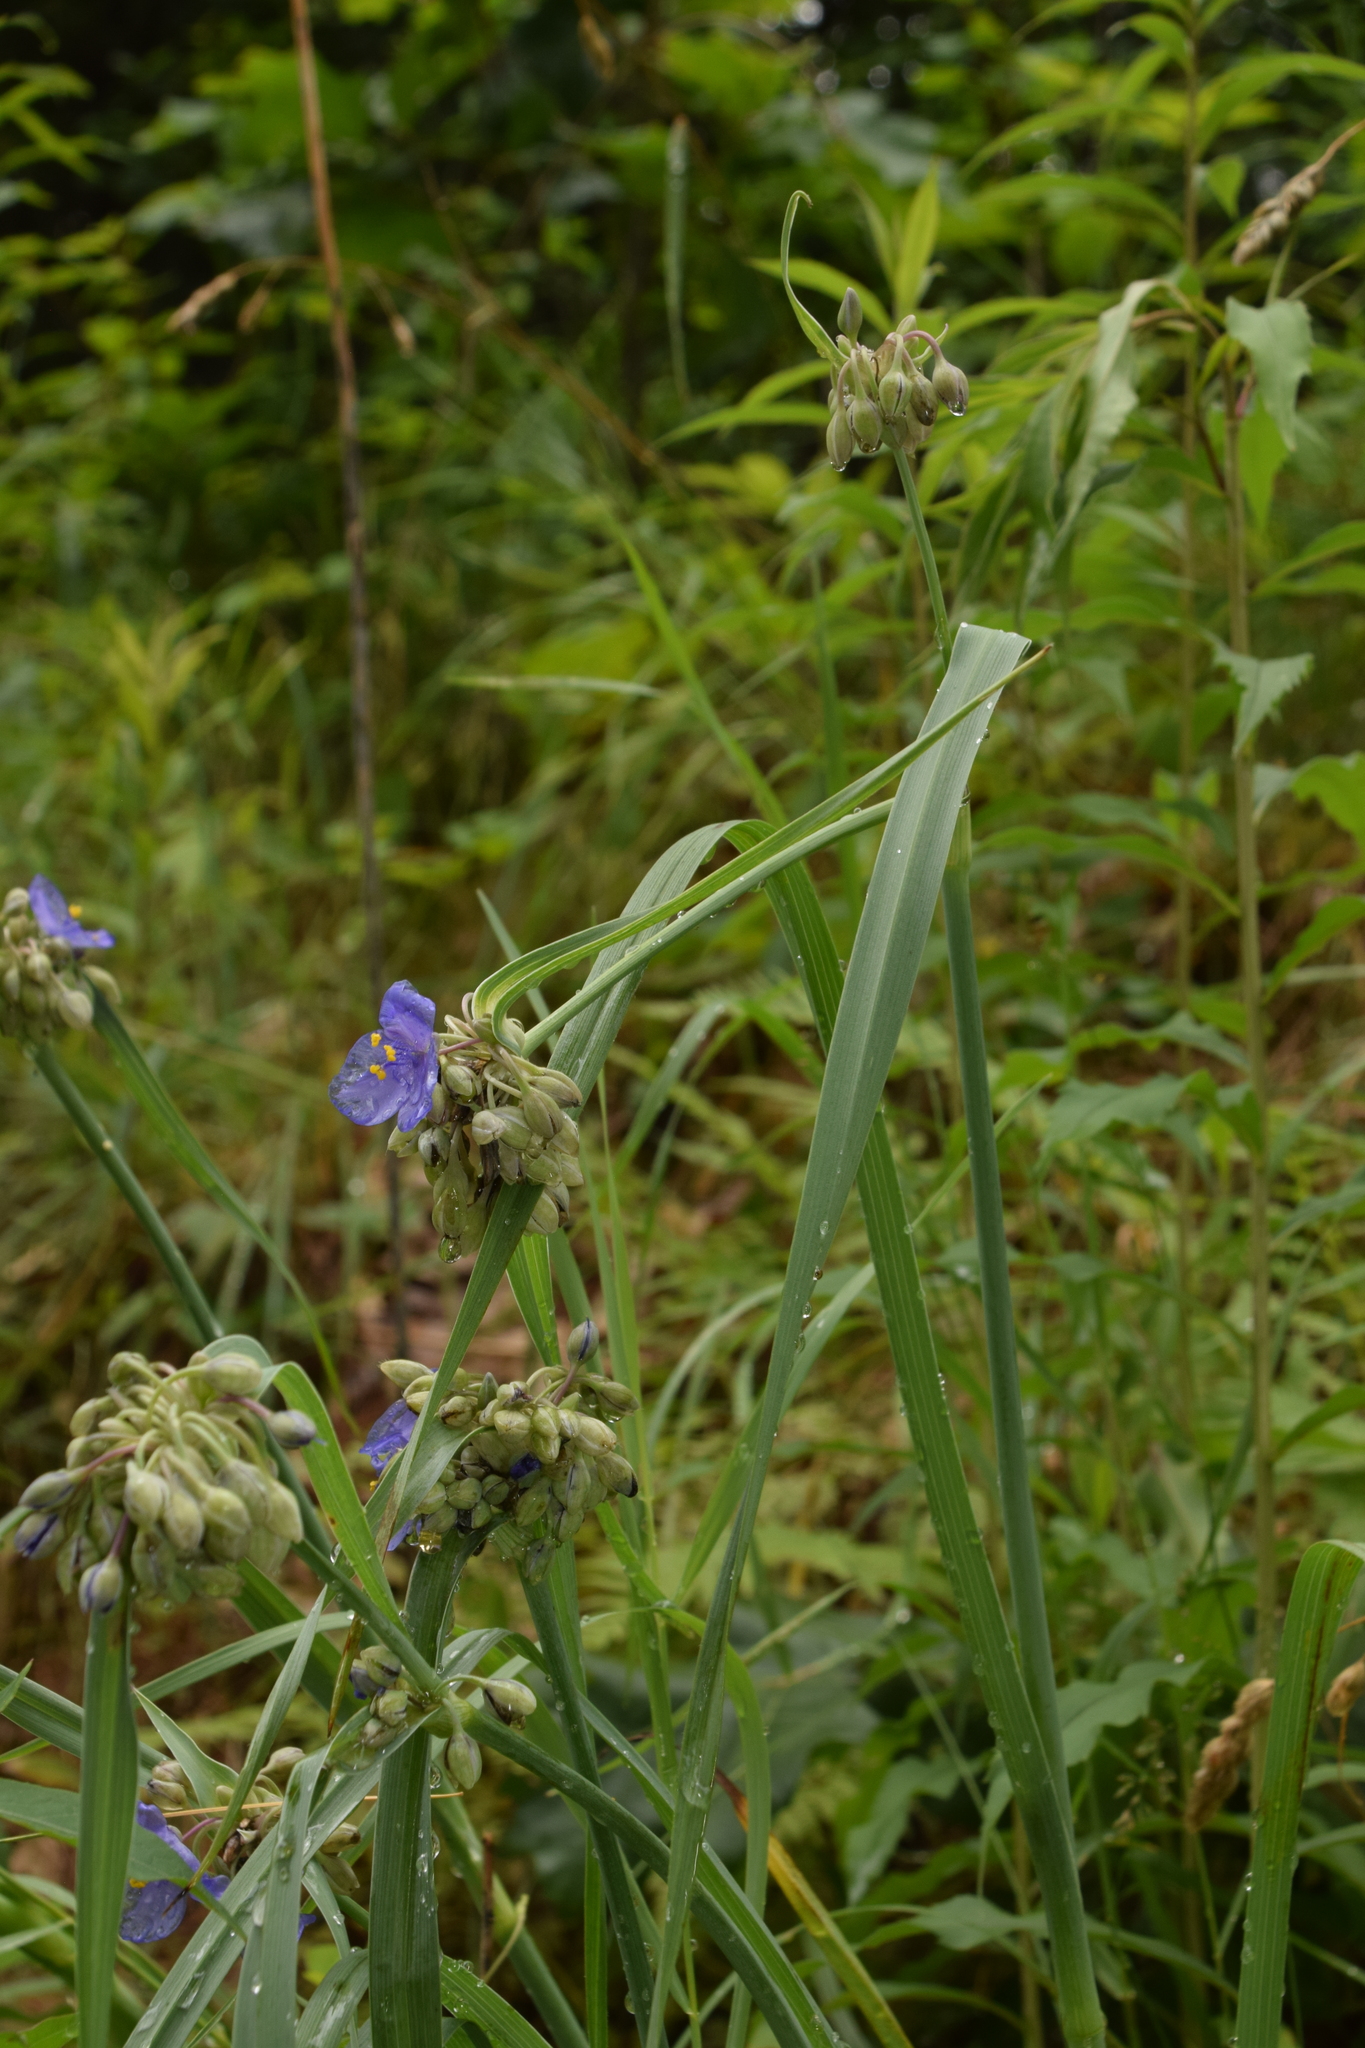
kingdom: Plantae
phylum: Tracheophyta
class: Liliopsida
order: Commelinales
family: Commelinaceae
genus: Tradescantia
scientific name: Tradescantia ohiensis
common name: Ohio spiderwort
